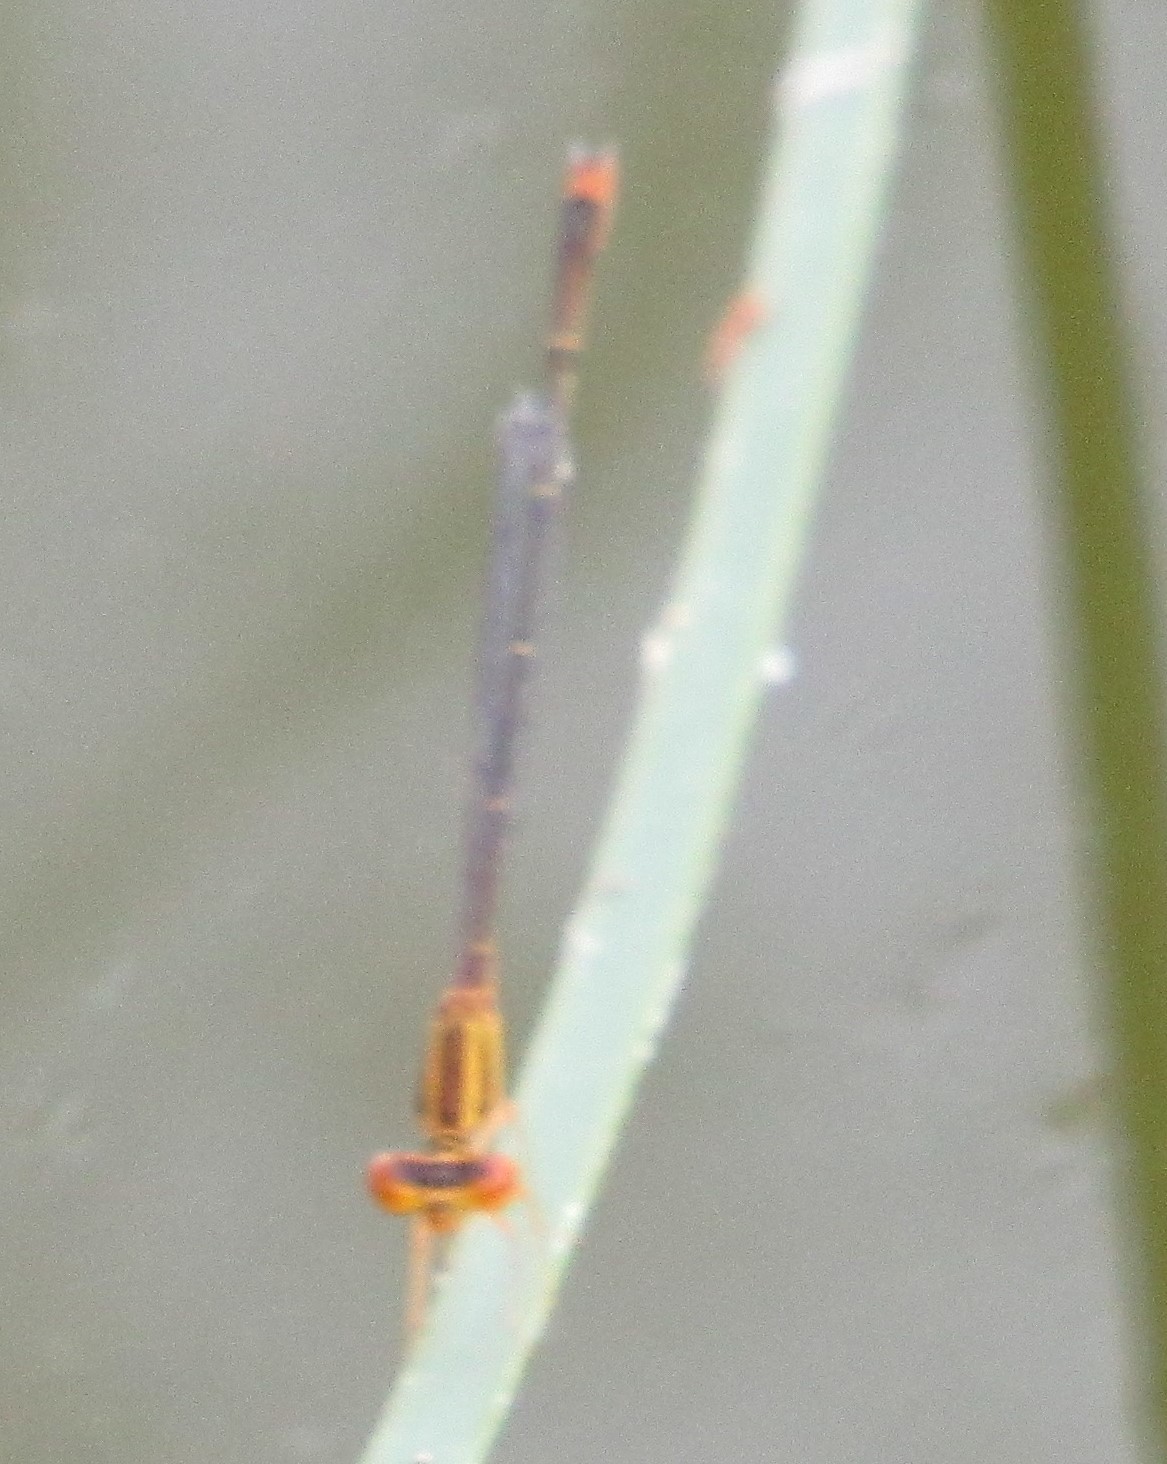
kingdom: Animalia
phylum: Arthropoda
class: Insecta
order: Odonata
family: Coenagrionidae
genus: Enallagma
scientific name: Enallagma signatum
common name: Orange bluet
